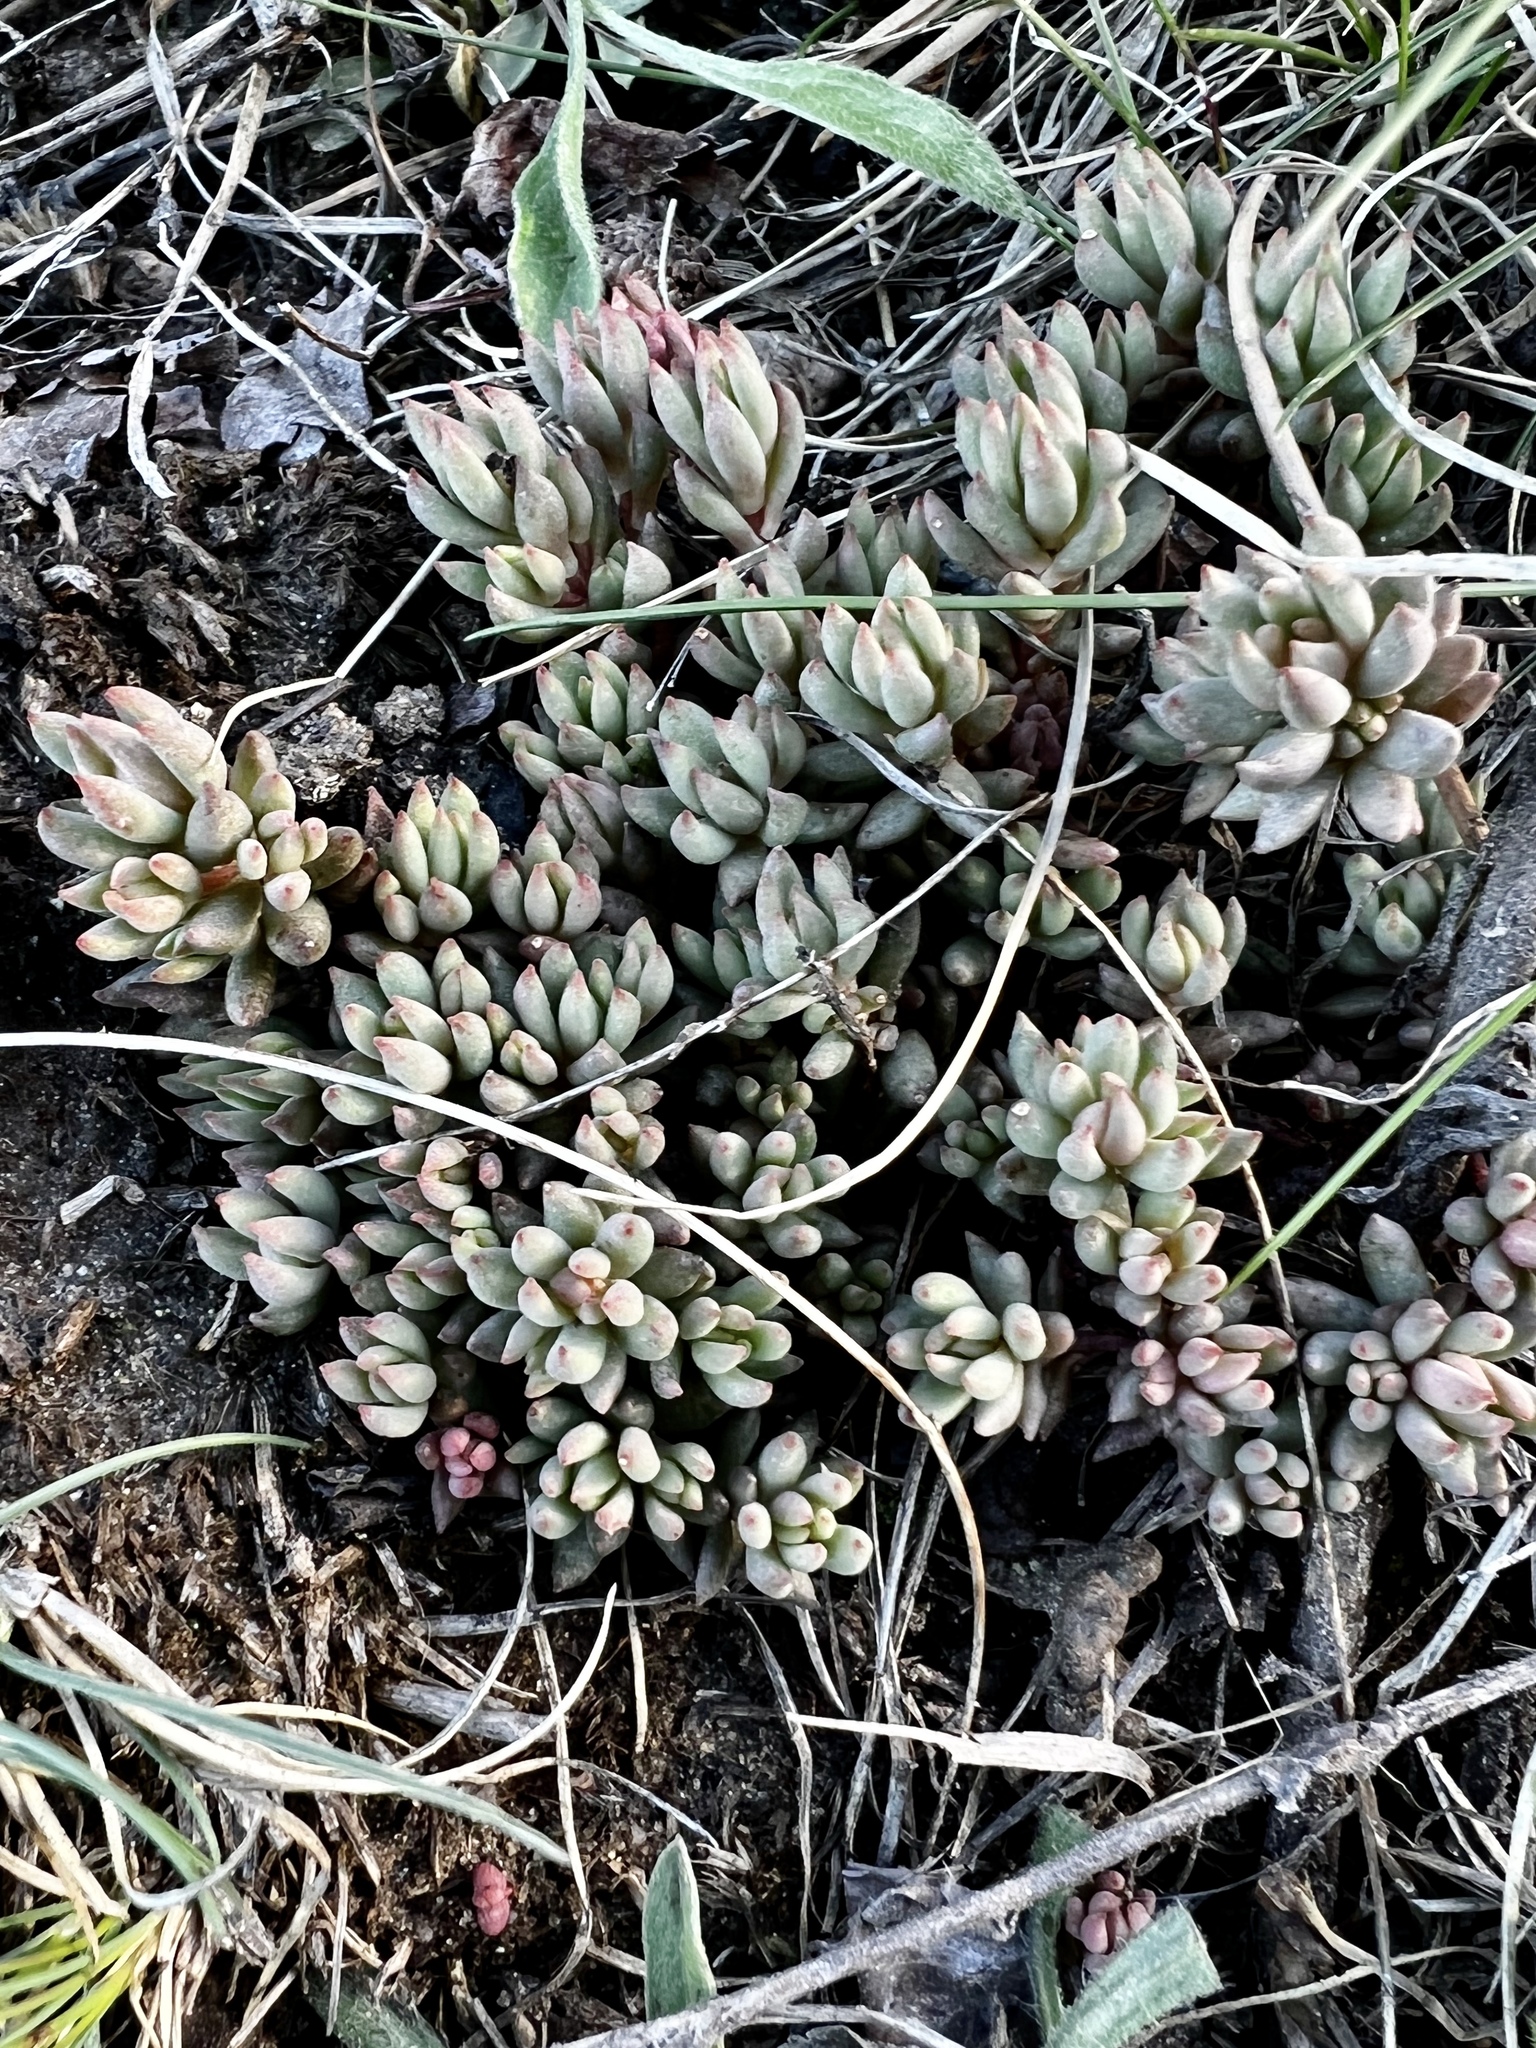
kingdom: Plantae
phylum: Tracheophyta
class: Magnoliopsida
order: Saxifragales
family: Crassulaceae
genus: Sedum
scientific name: Sedum lanceolatum
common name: Common stonecrop
